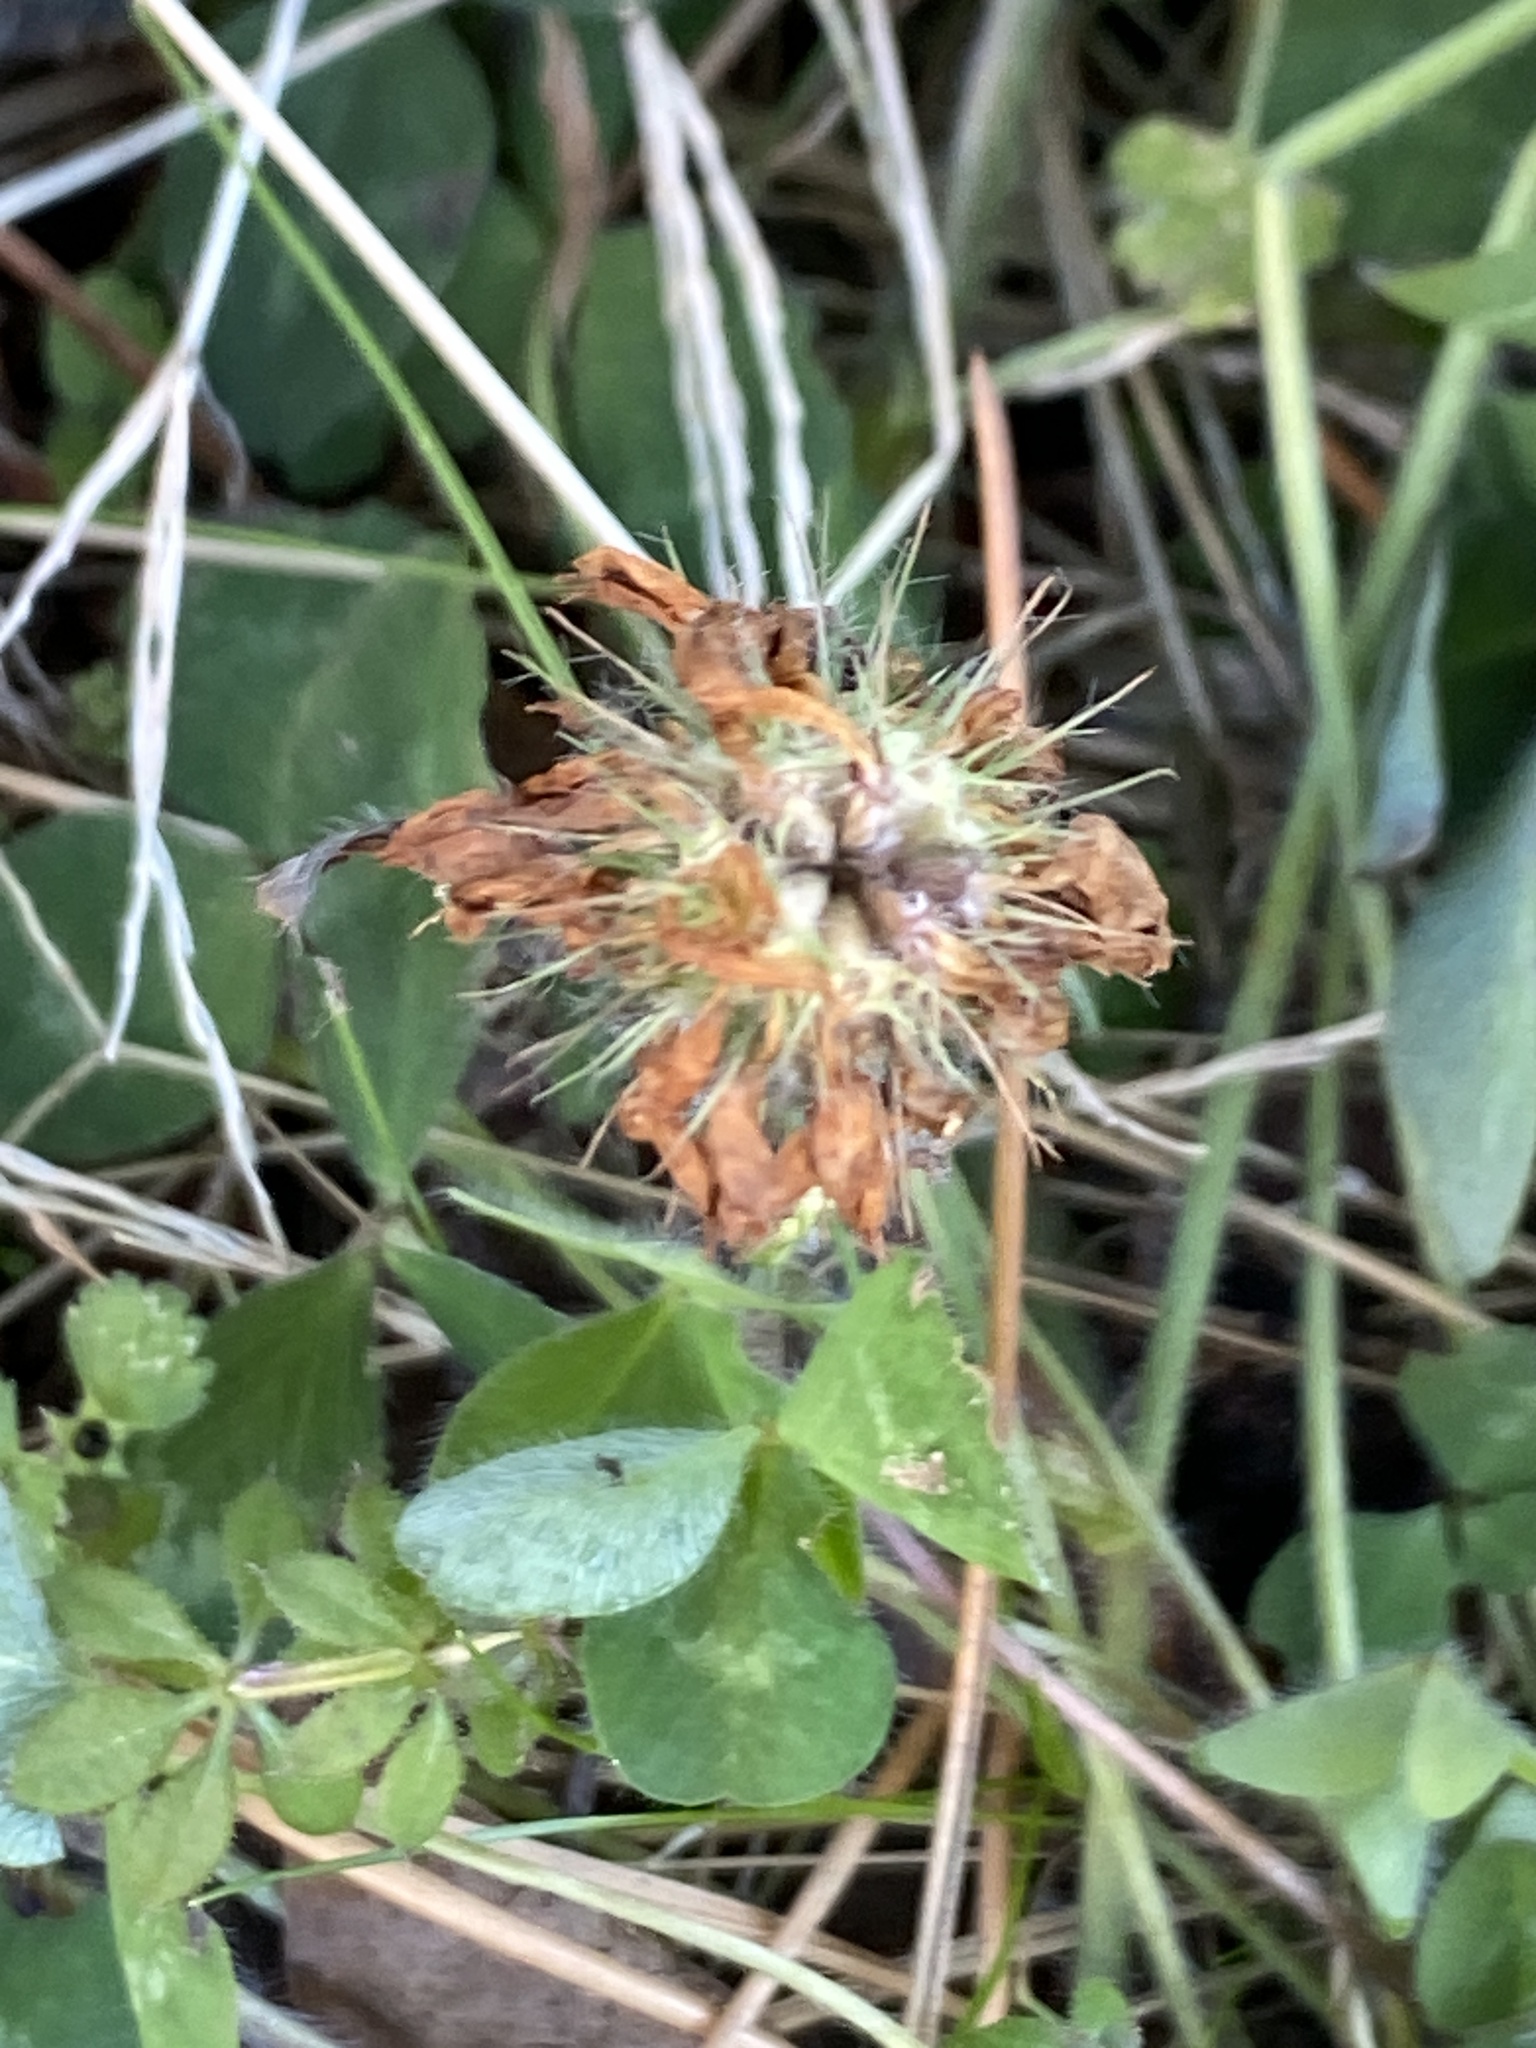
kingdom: Plantae
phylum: Tracheophyta
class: Magnoliopsida
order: Fabales
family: Fabaceae
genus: Trifolium
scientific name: Trifolium pratense
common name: Red clover
